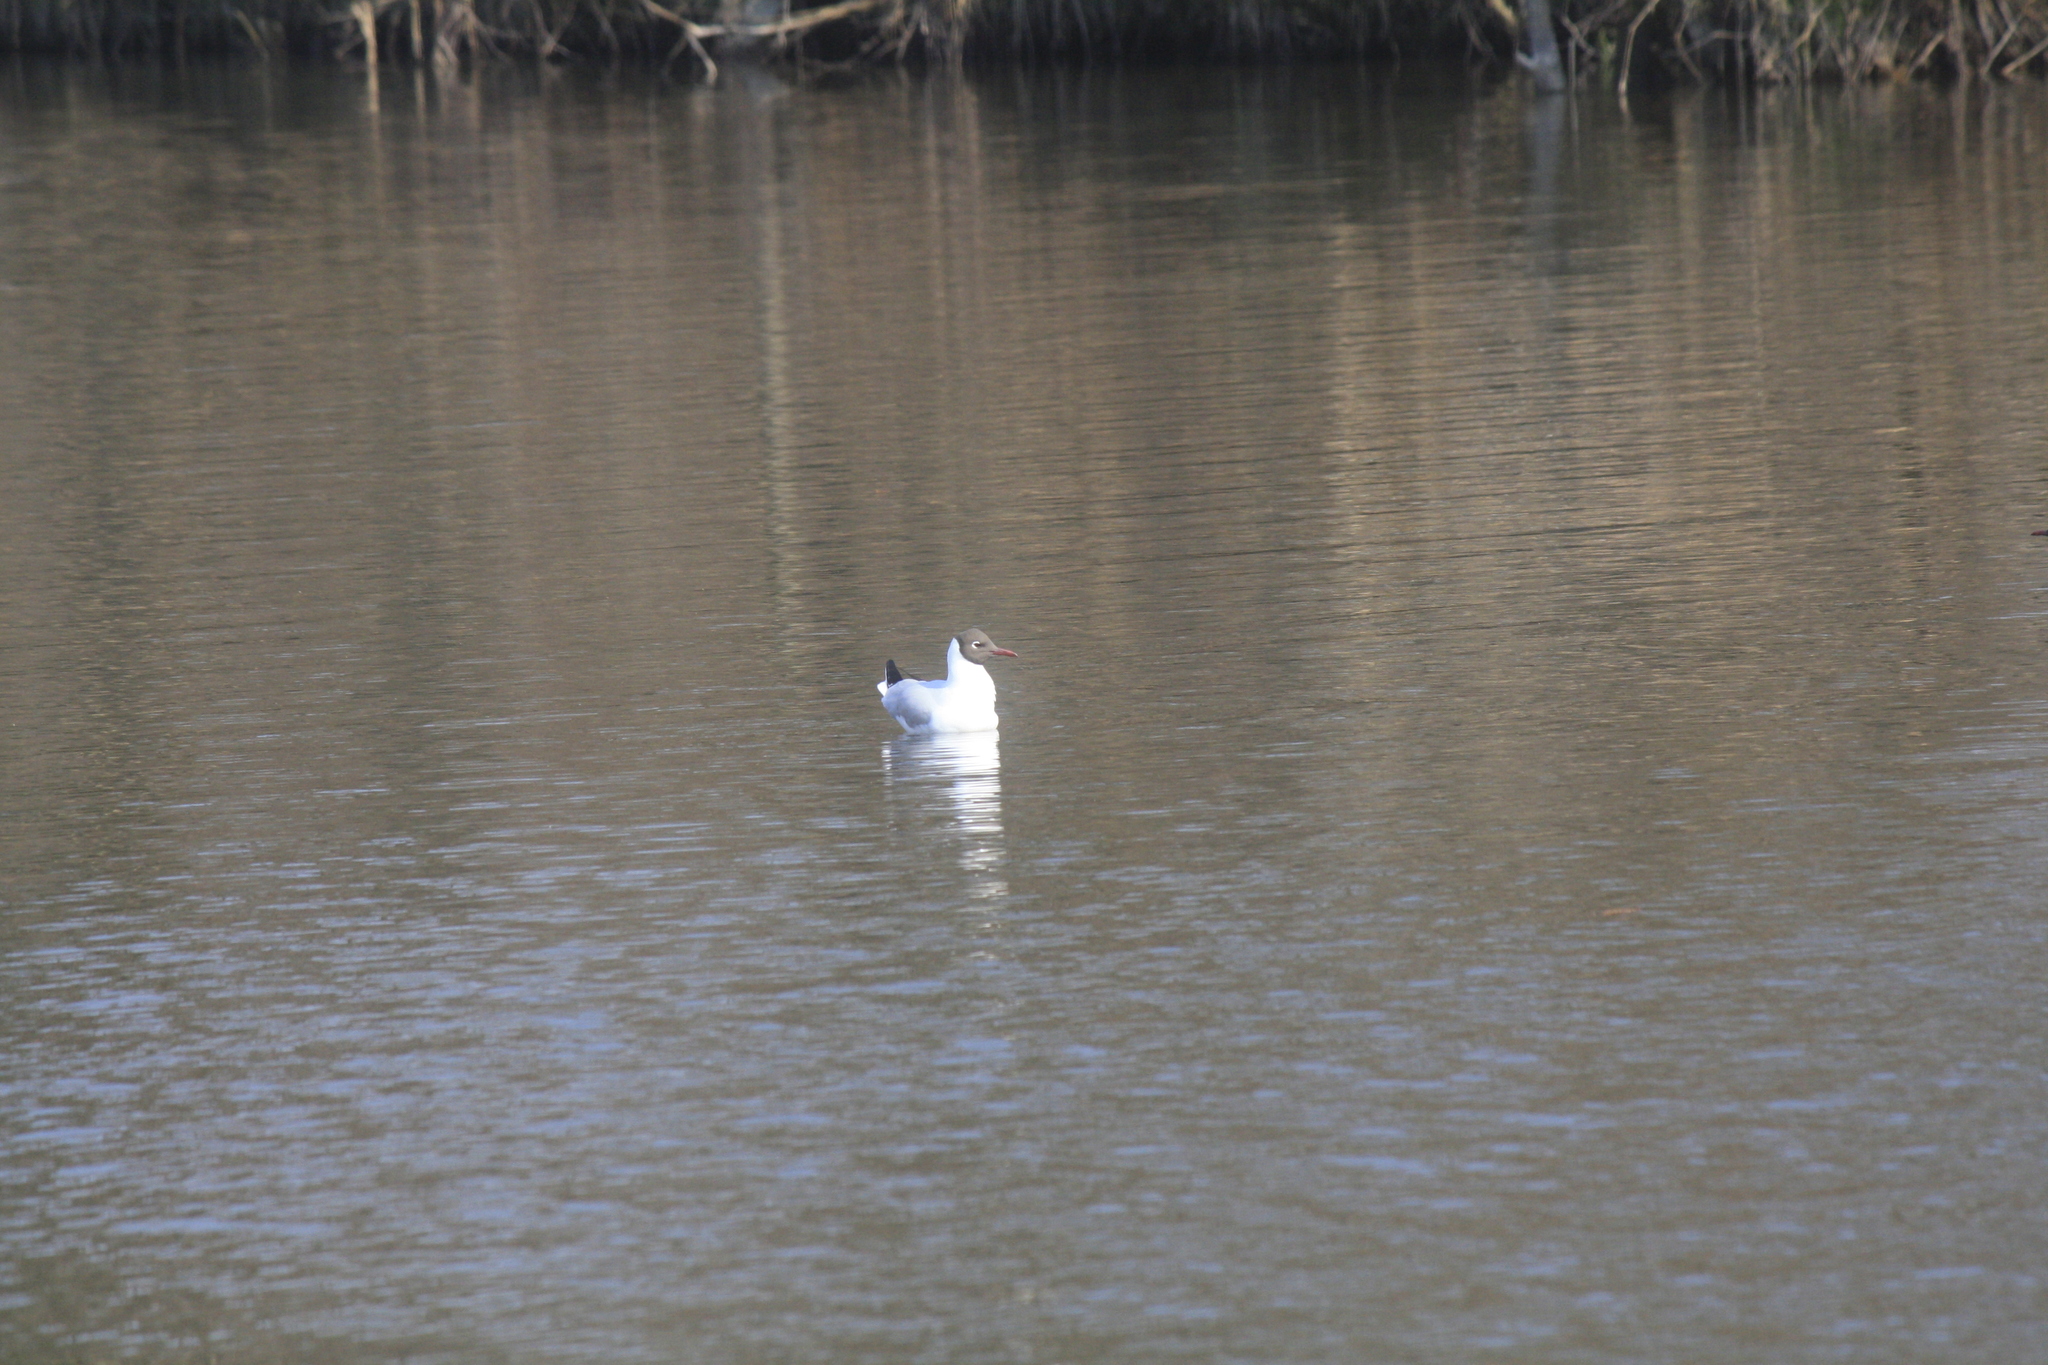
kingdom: Animalia
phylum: Chordata
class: Aves
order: Charadriiformes
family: Laridae
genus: Chroicocephalus
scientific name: Chroicocephalus ridibundus
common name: Black-headed gull
